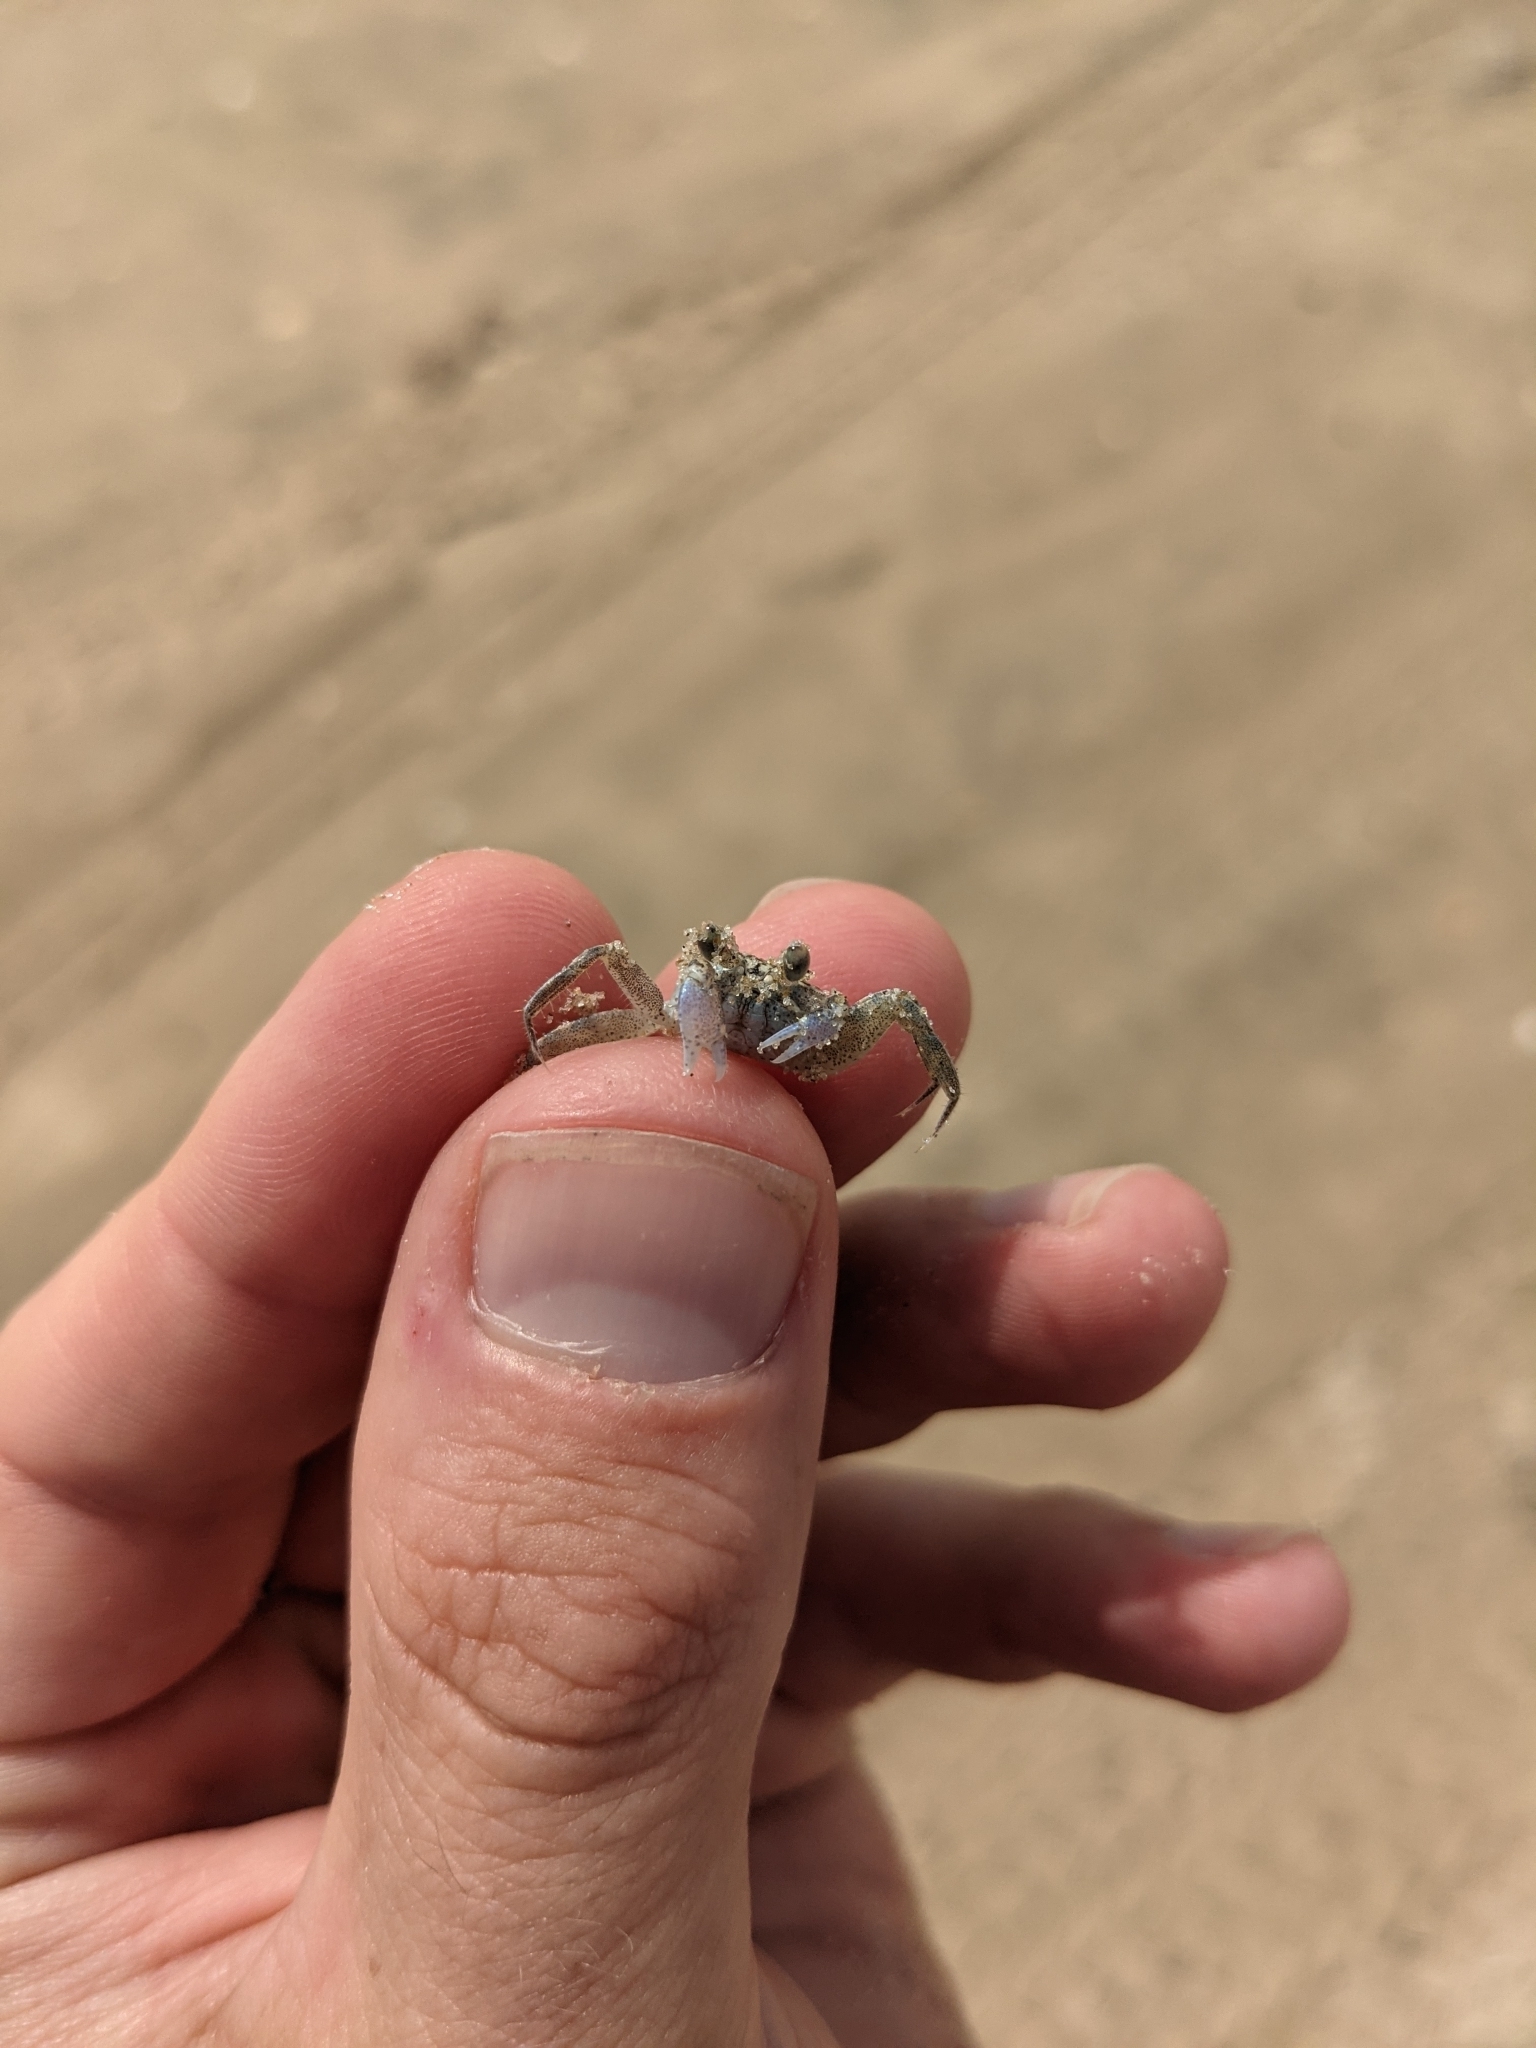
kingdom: Animalia
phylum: Arthropoda
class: Malacostraca
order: Decapoda
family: Ocypodidae
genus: Ocypode
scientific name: Ocypode quadrata
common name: Ghost crab
